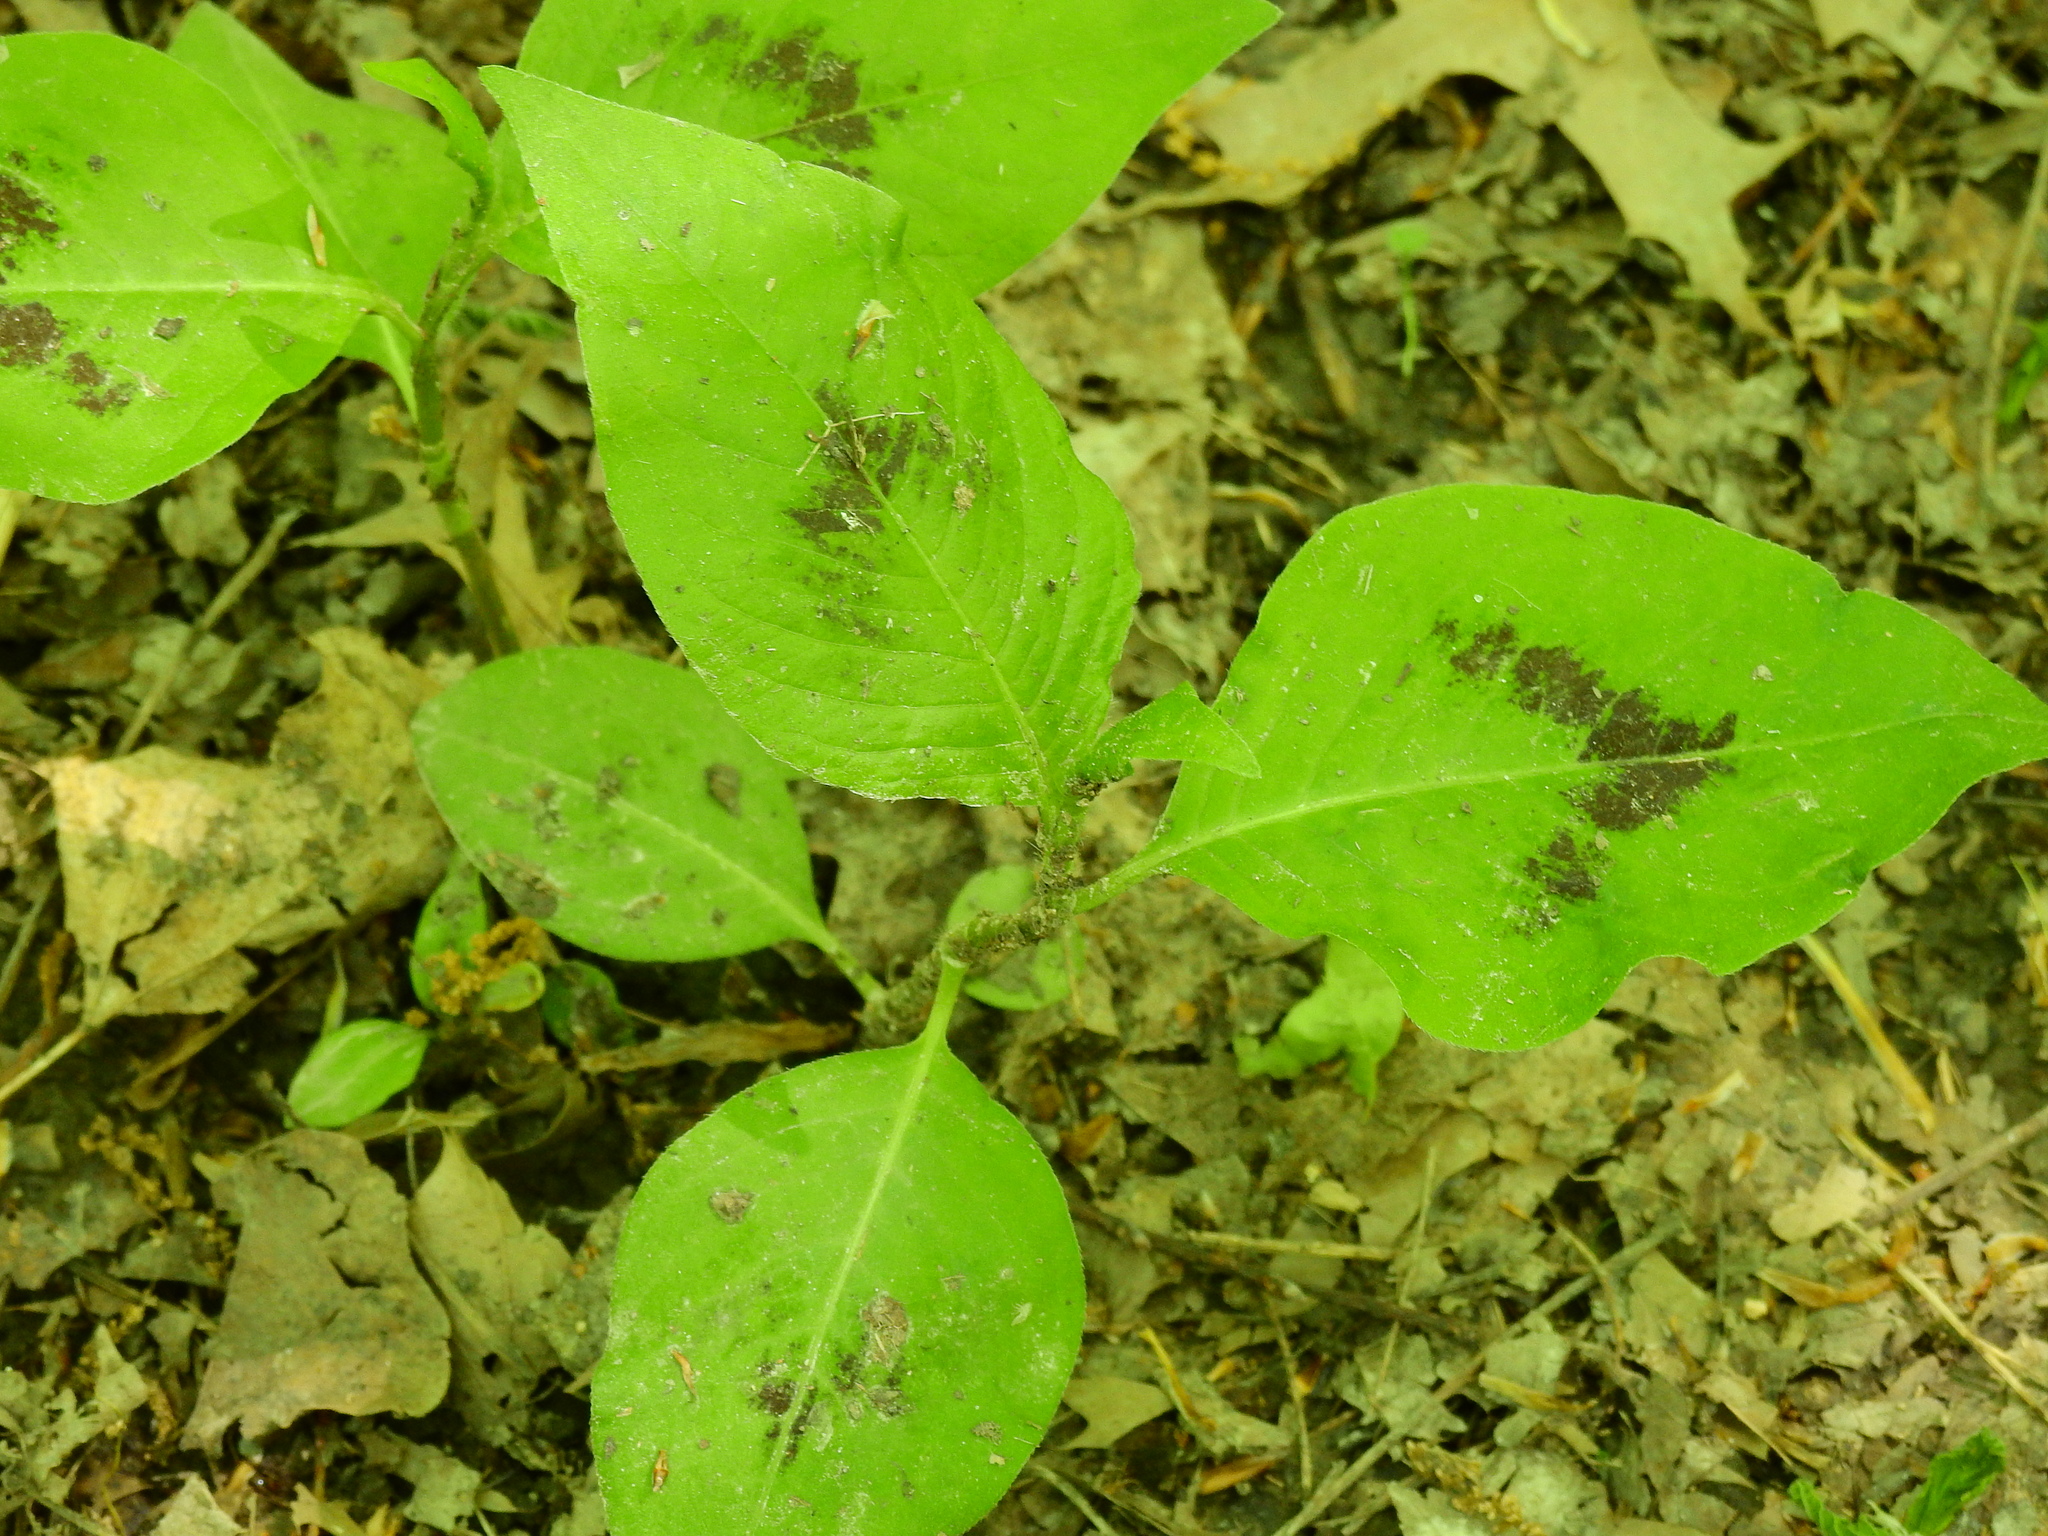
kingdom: Plantae
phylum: Tracheophyta
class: Magnoliopsida
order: Caryophyllales
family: Polygonaceae
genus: Persicaria
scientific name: Persicaria virginiana
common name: Jumpseed
